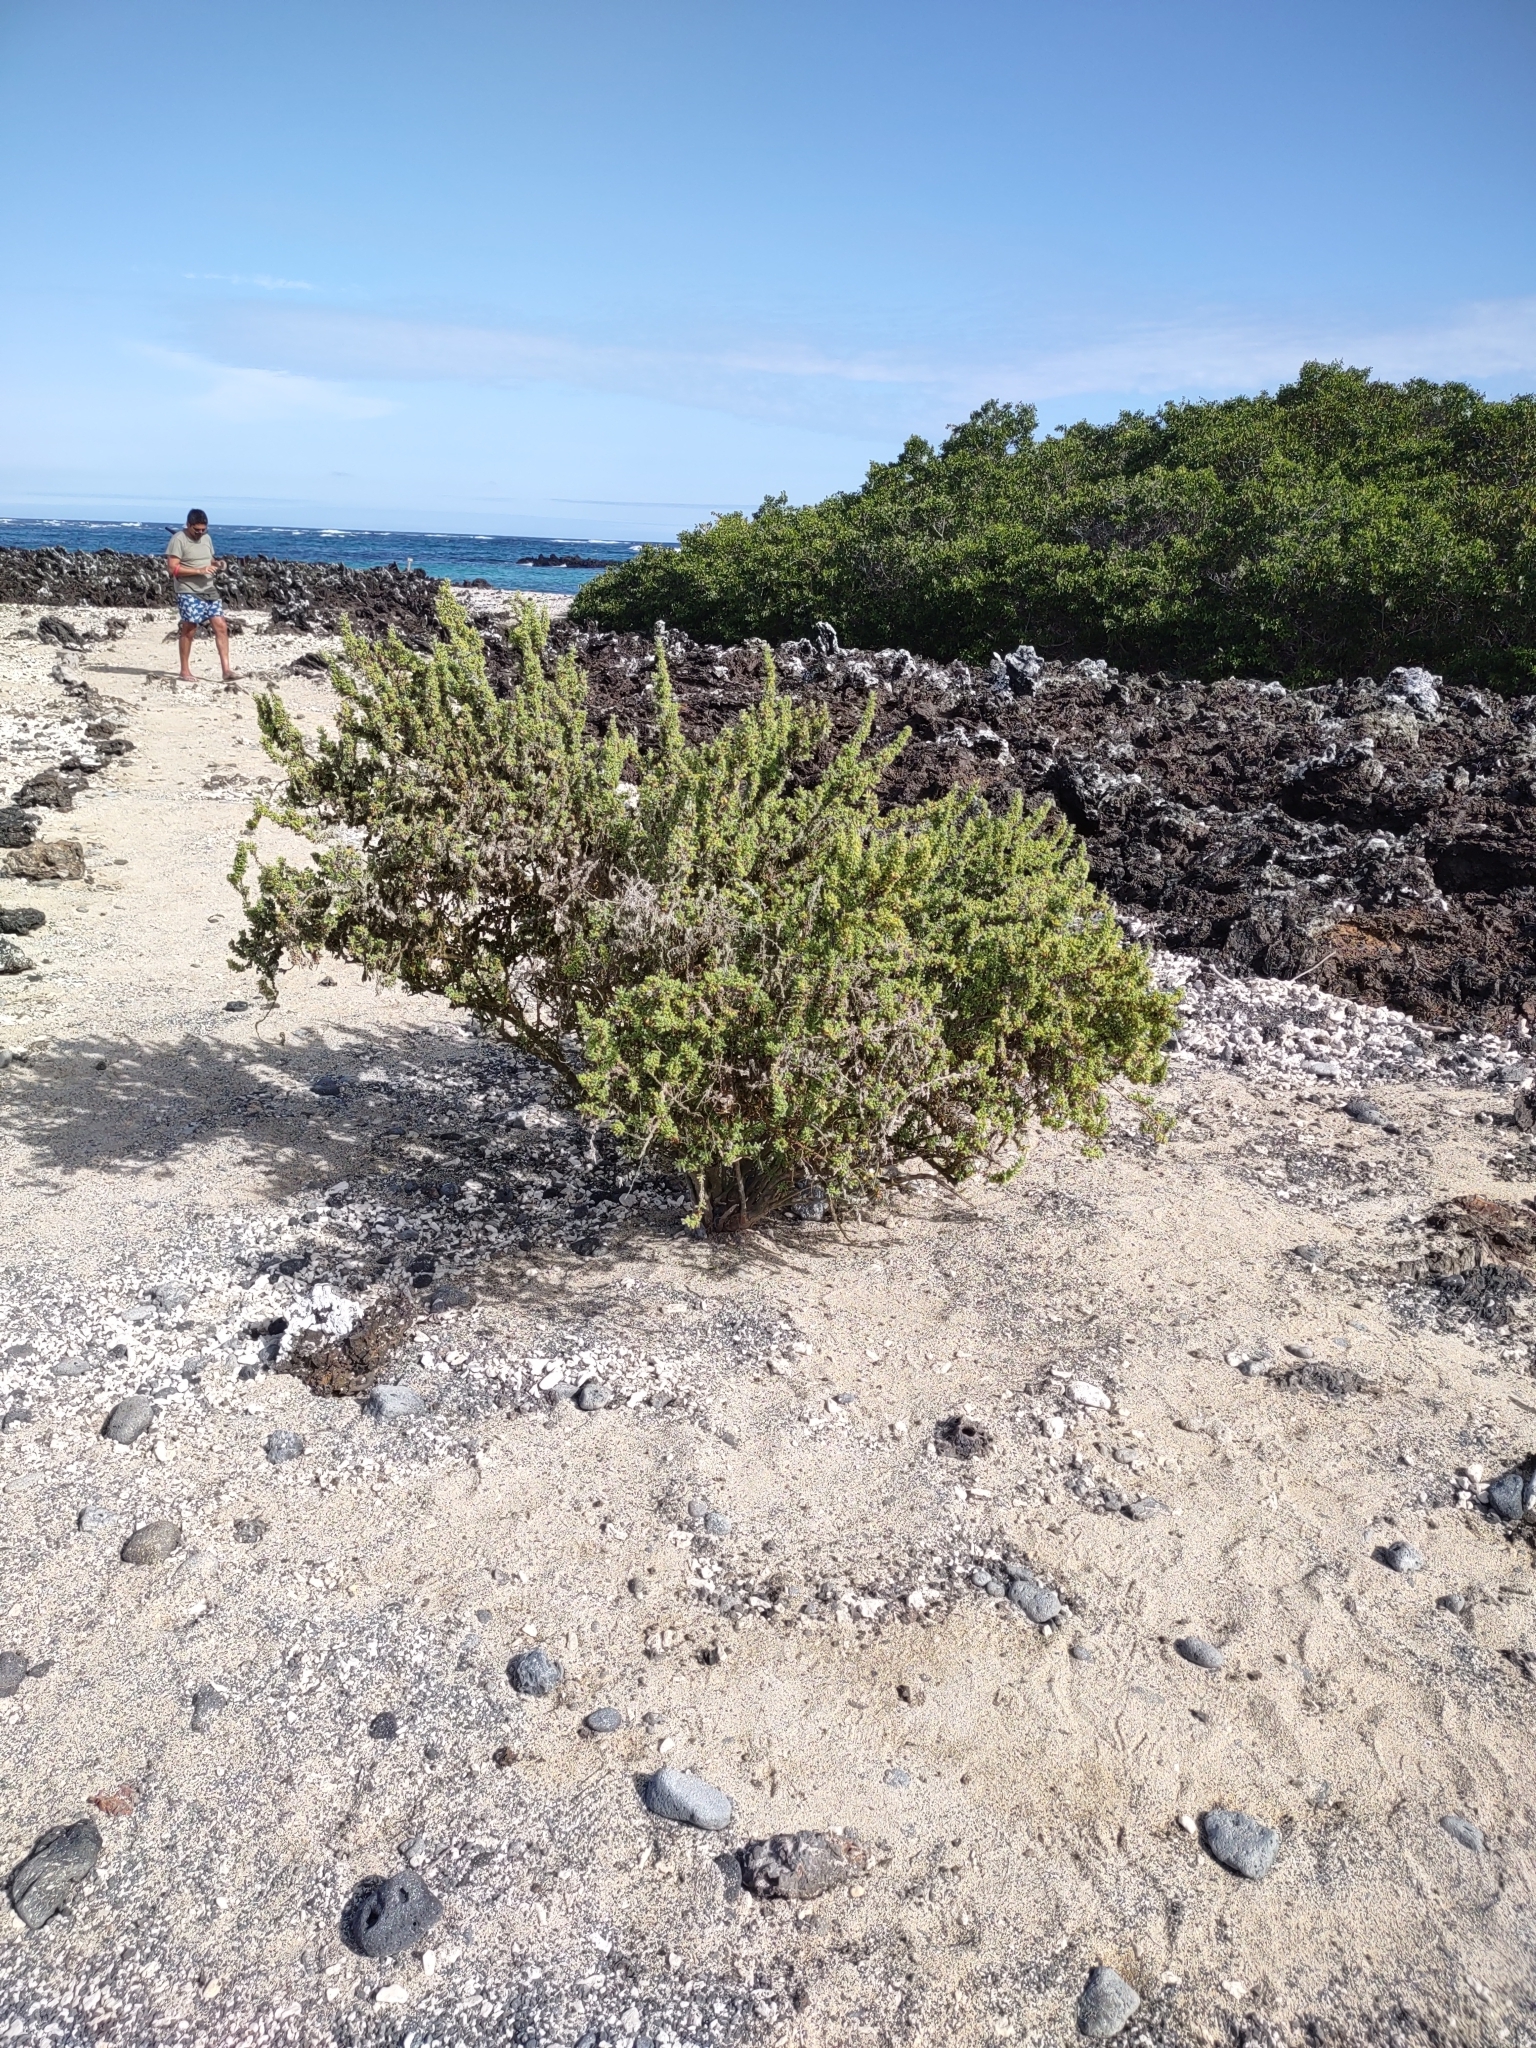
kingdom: Plantae
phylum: Tracheophyta
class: Magnoliopsida
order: Solanales
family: Solanaceae
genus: Nolana
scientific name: Nolana galapagensis
